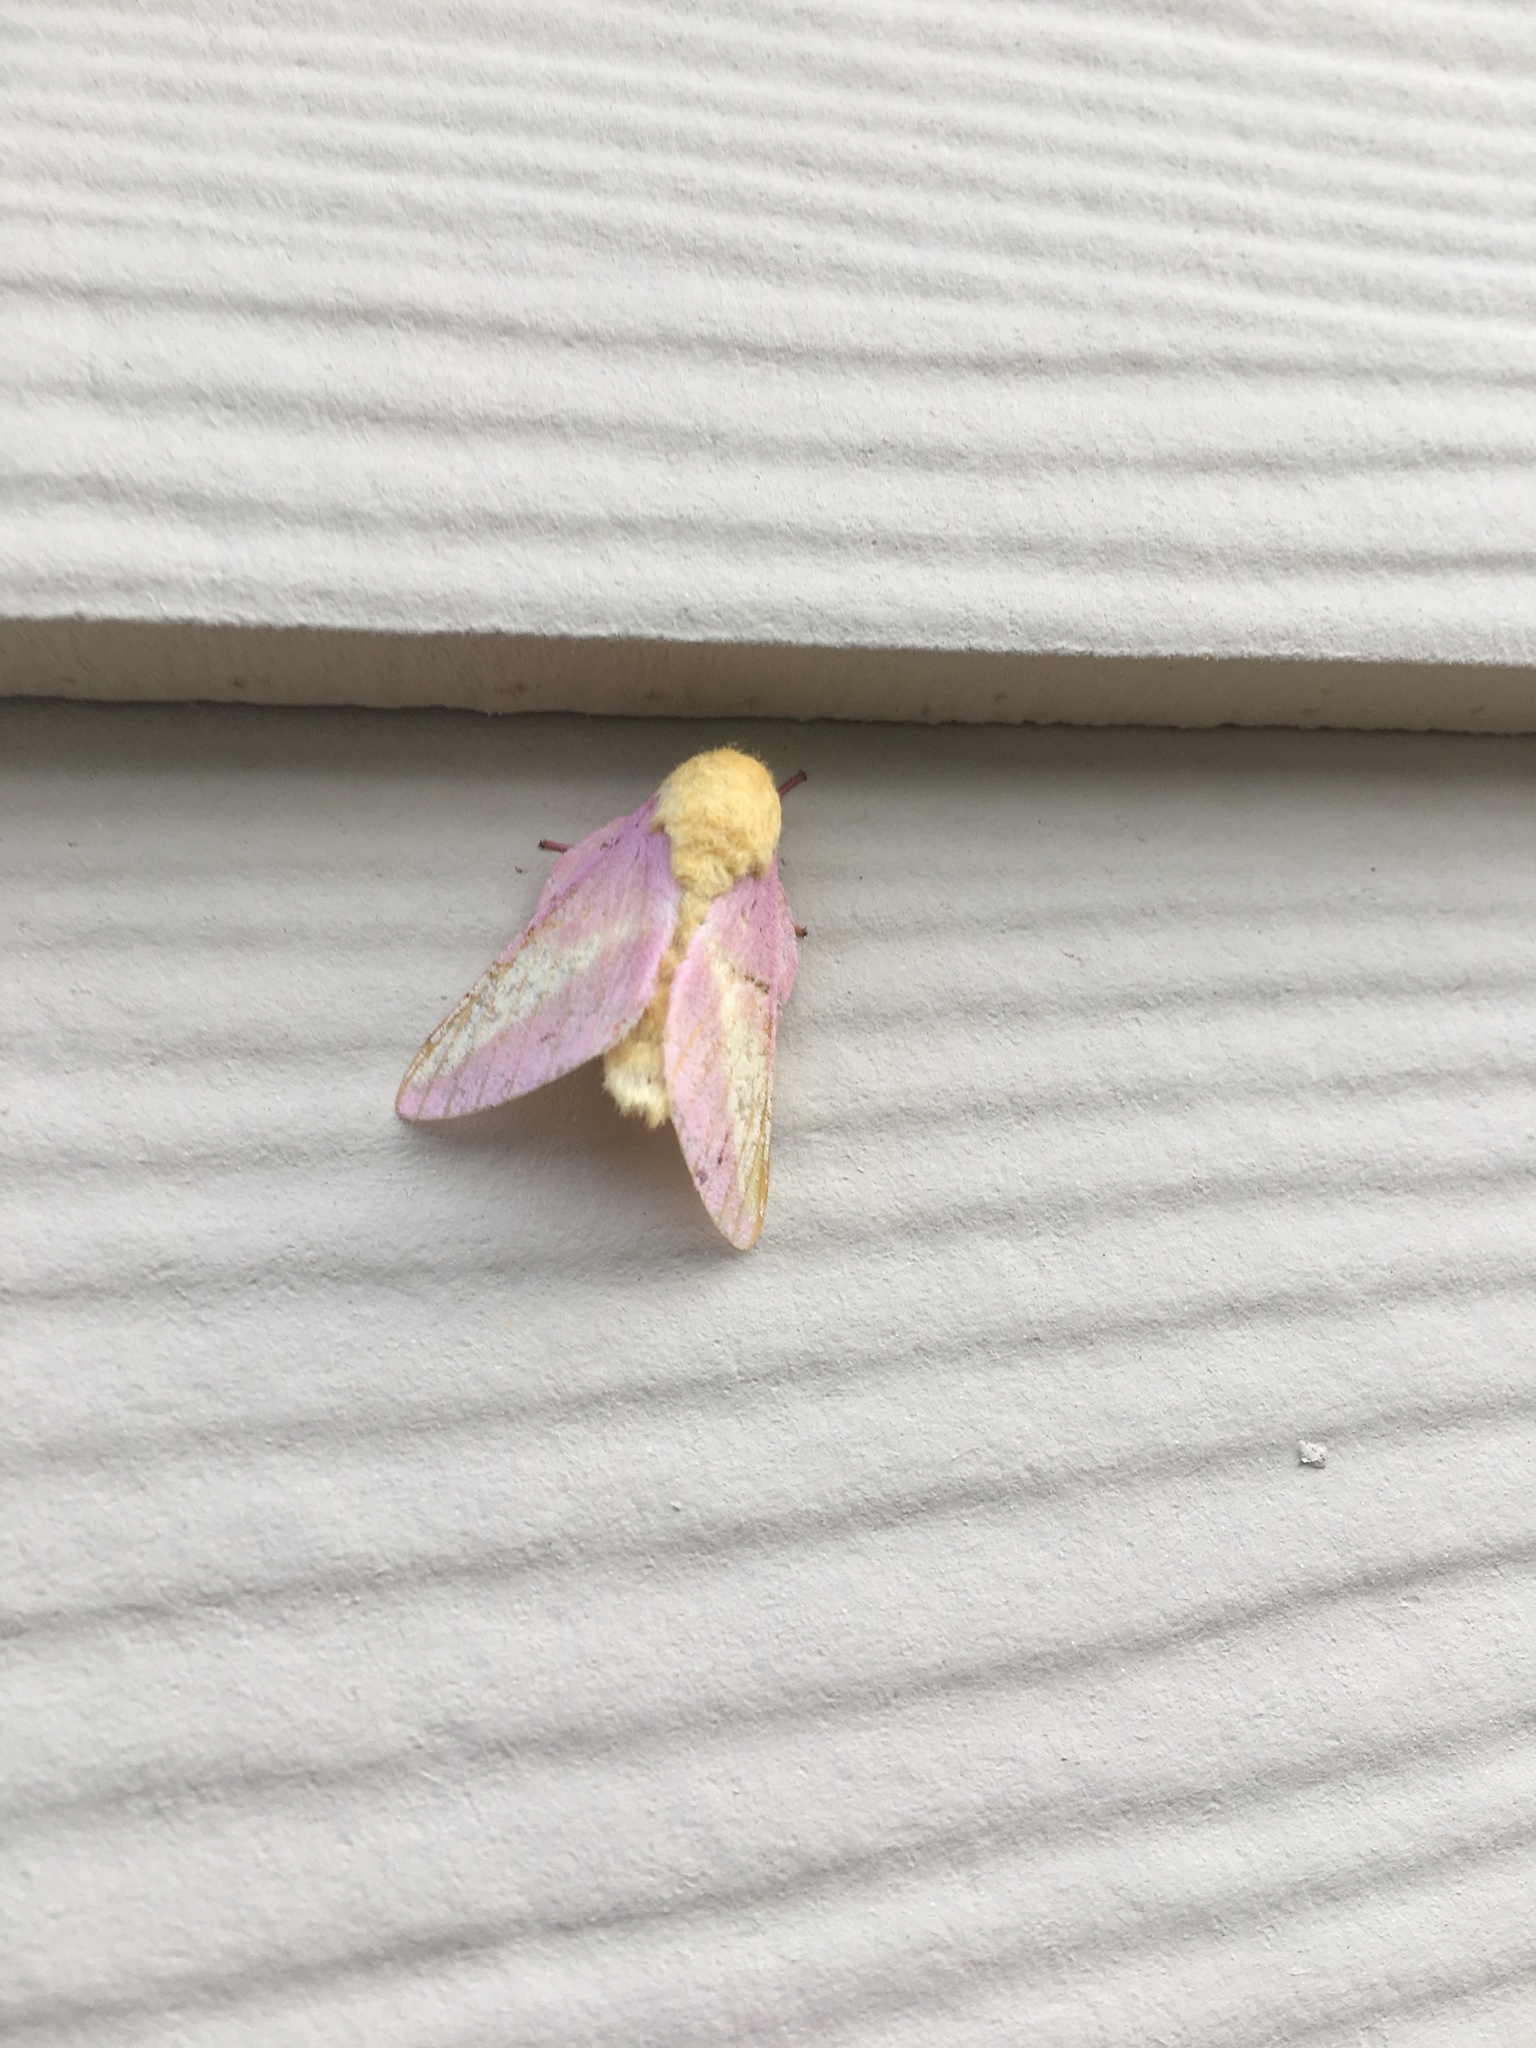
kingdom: Animalia
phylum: Arthropoda
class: Insecta
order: Lepidoptera
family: Saturniidae
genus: Dryocampa
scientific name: Dryocampa rubicunda
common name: Rosy maple moth
